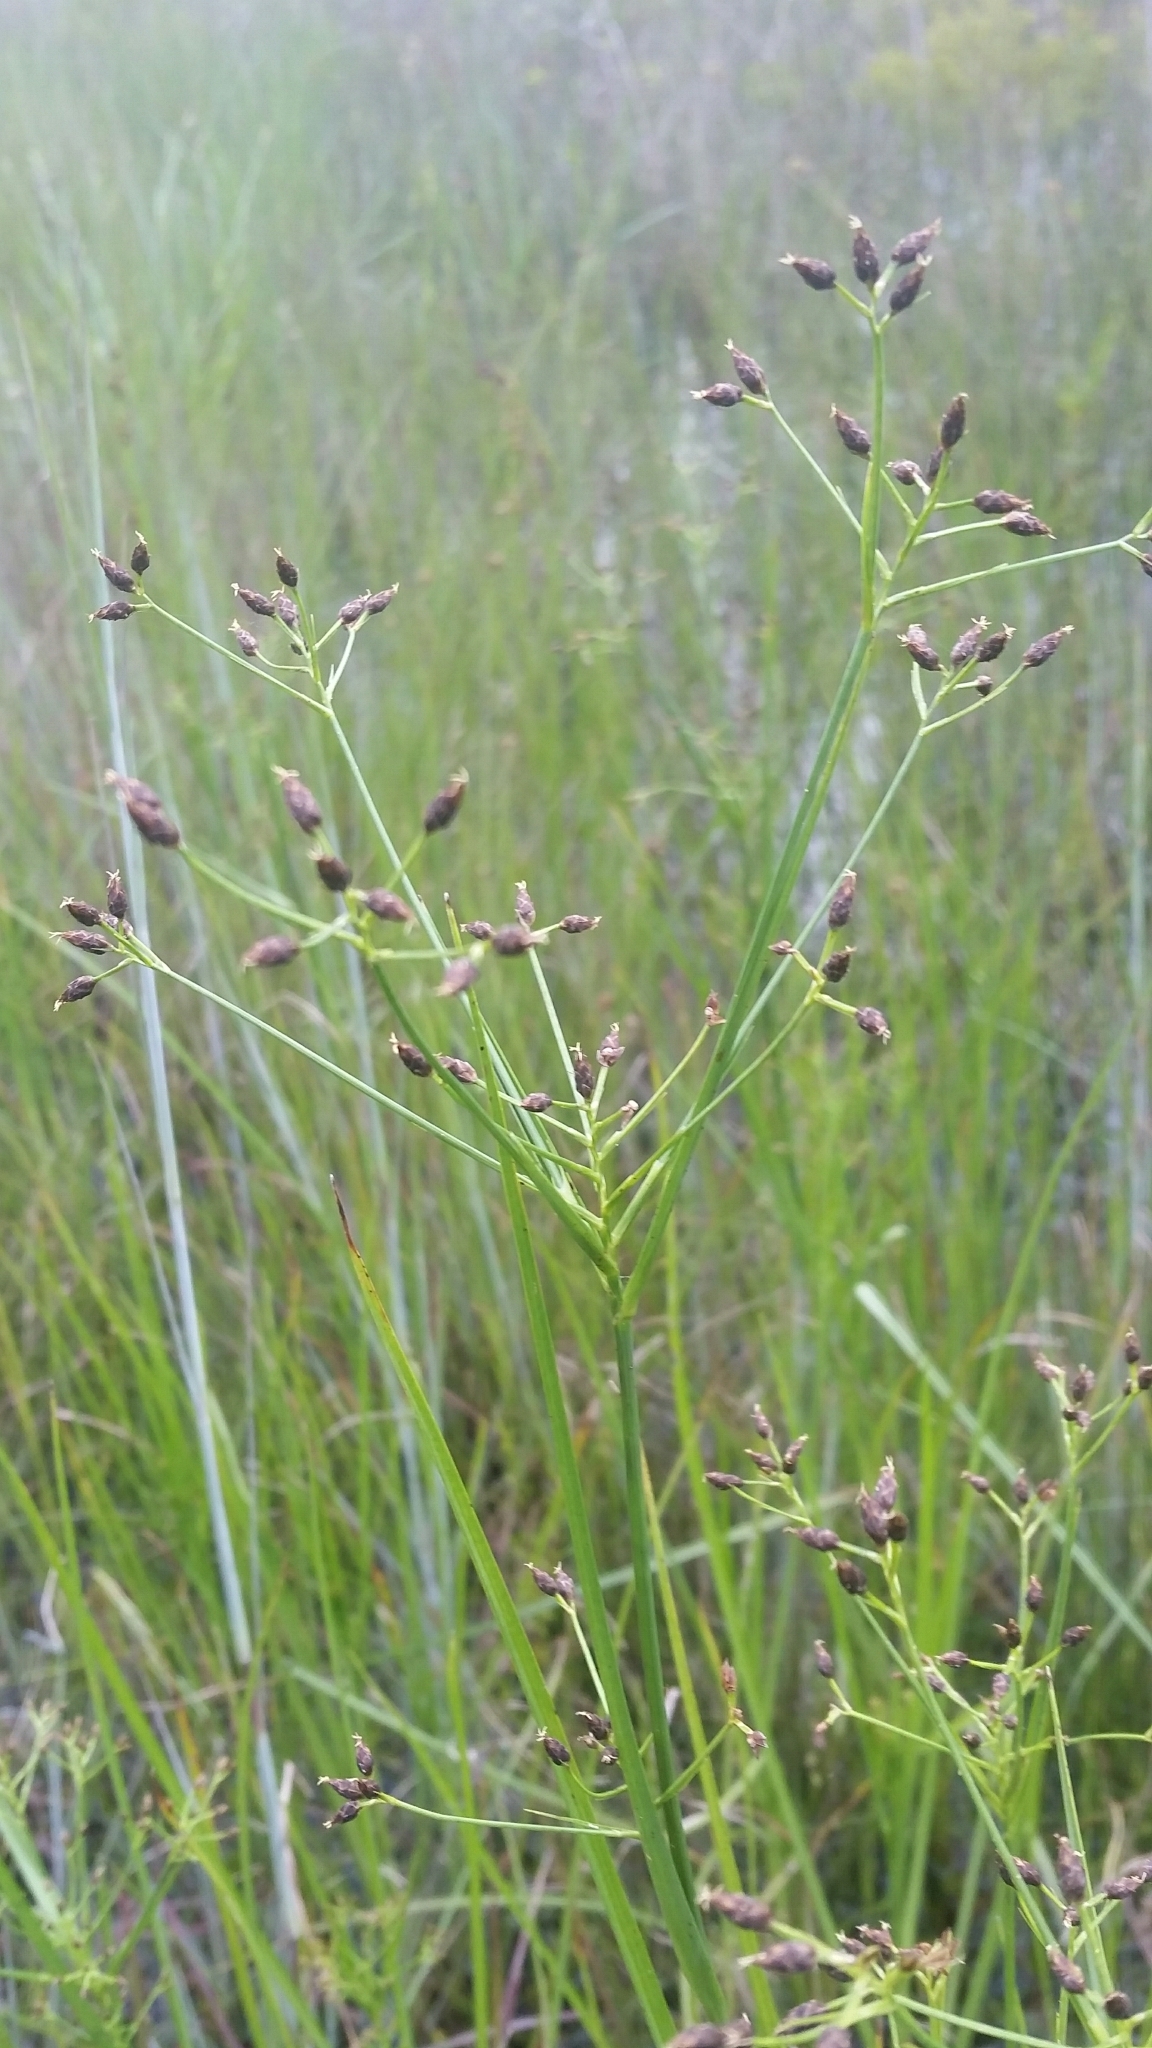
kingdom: Plantae
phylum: Tracheophyta
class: Liliopsida
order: Poales
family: Cyperaceae
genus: Rhynchospora
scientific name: Rhynchospora nitens
